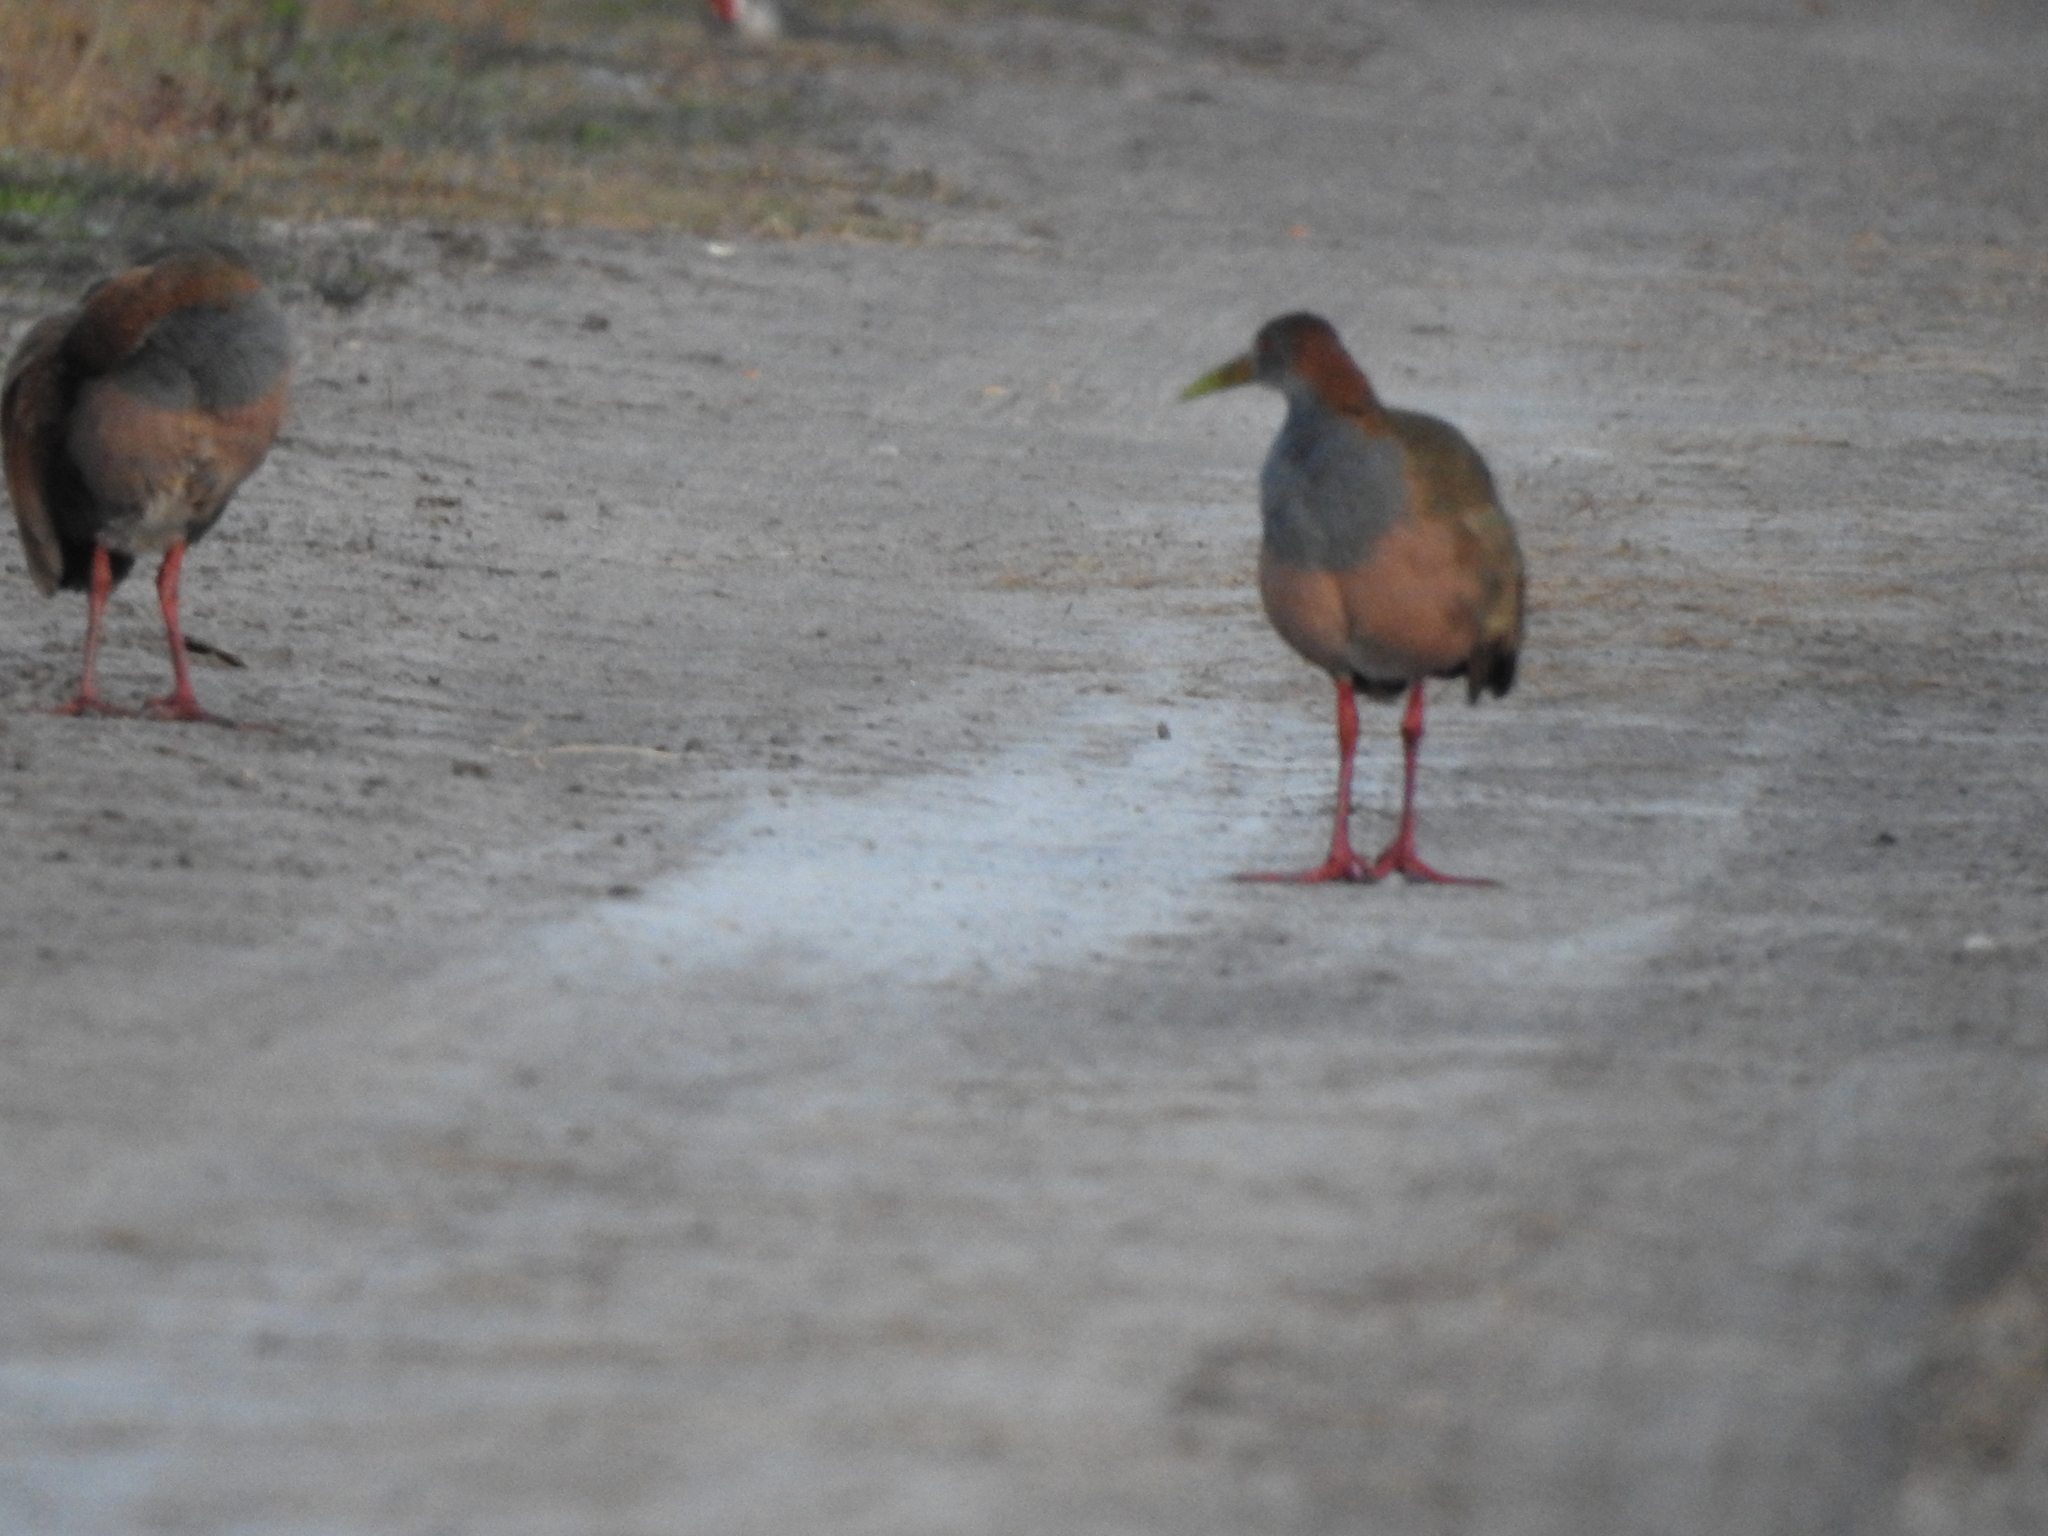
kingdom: Animalia
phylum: Chordata
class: Aves
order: Gruiformes
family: Rallidae
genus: Aramides
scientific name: Aramides ypecaha
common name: Giant wood rail
